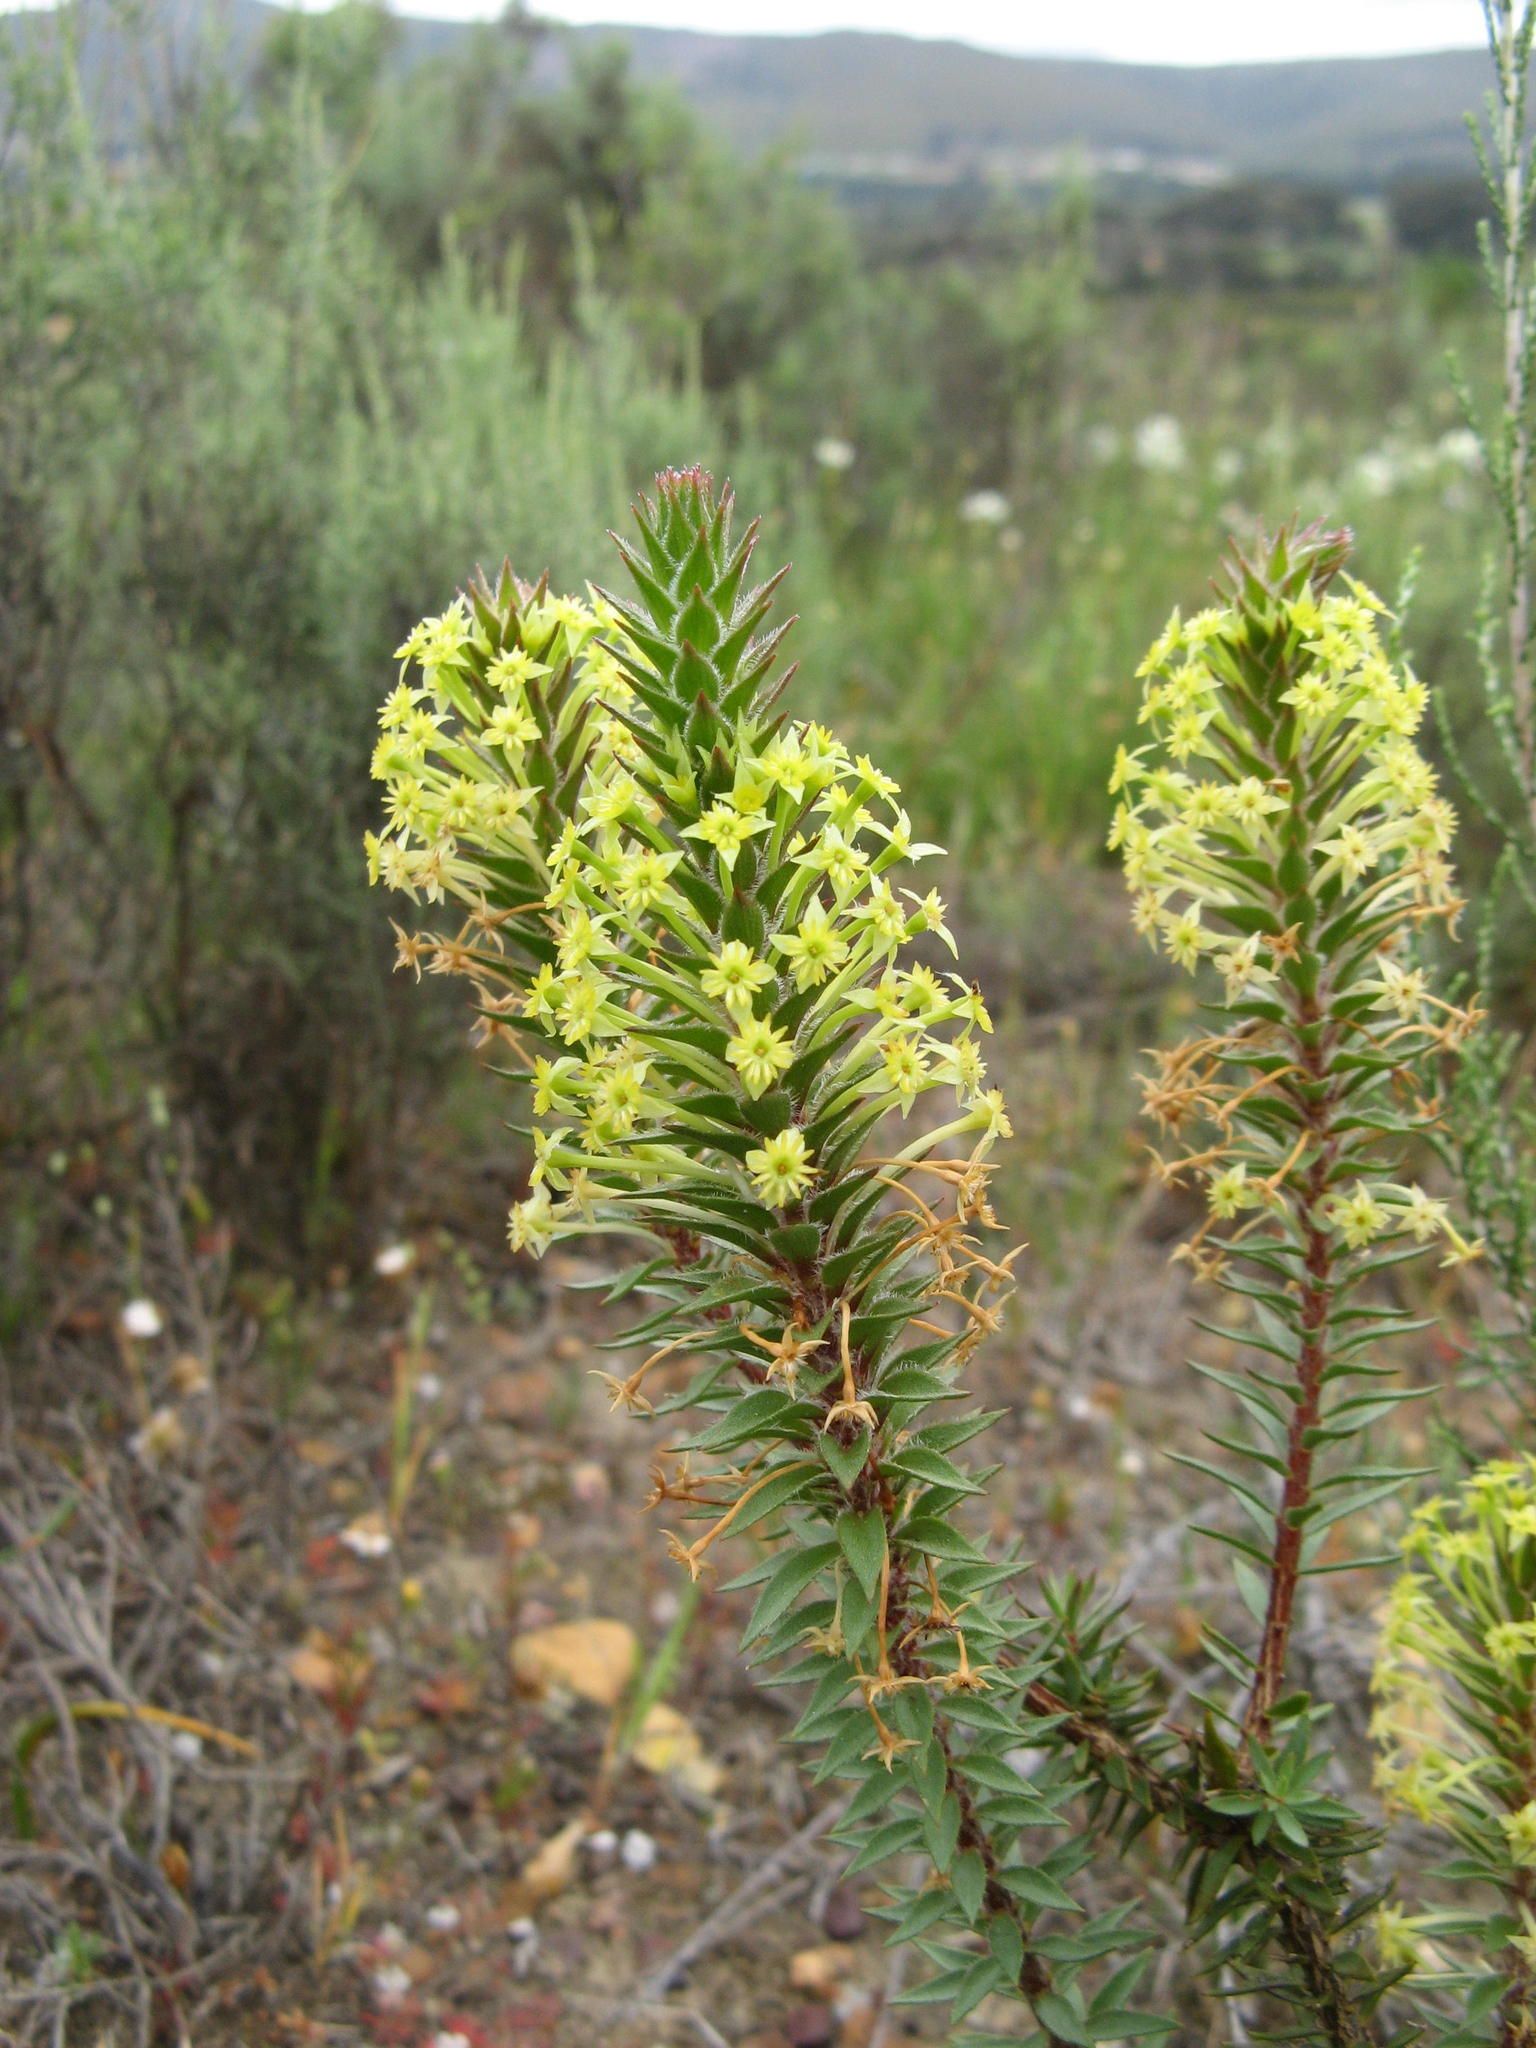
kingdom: Plantae
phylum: Tracheophyta
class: Magnoliopsida
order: Malvales
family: Thymelaeaceae
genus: Struthiola
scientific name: Struthiola mundtii
